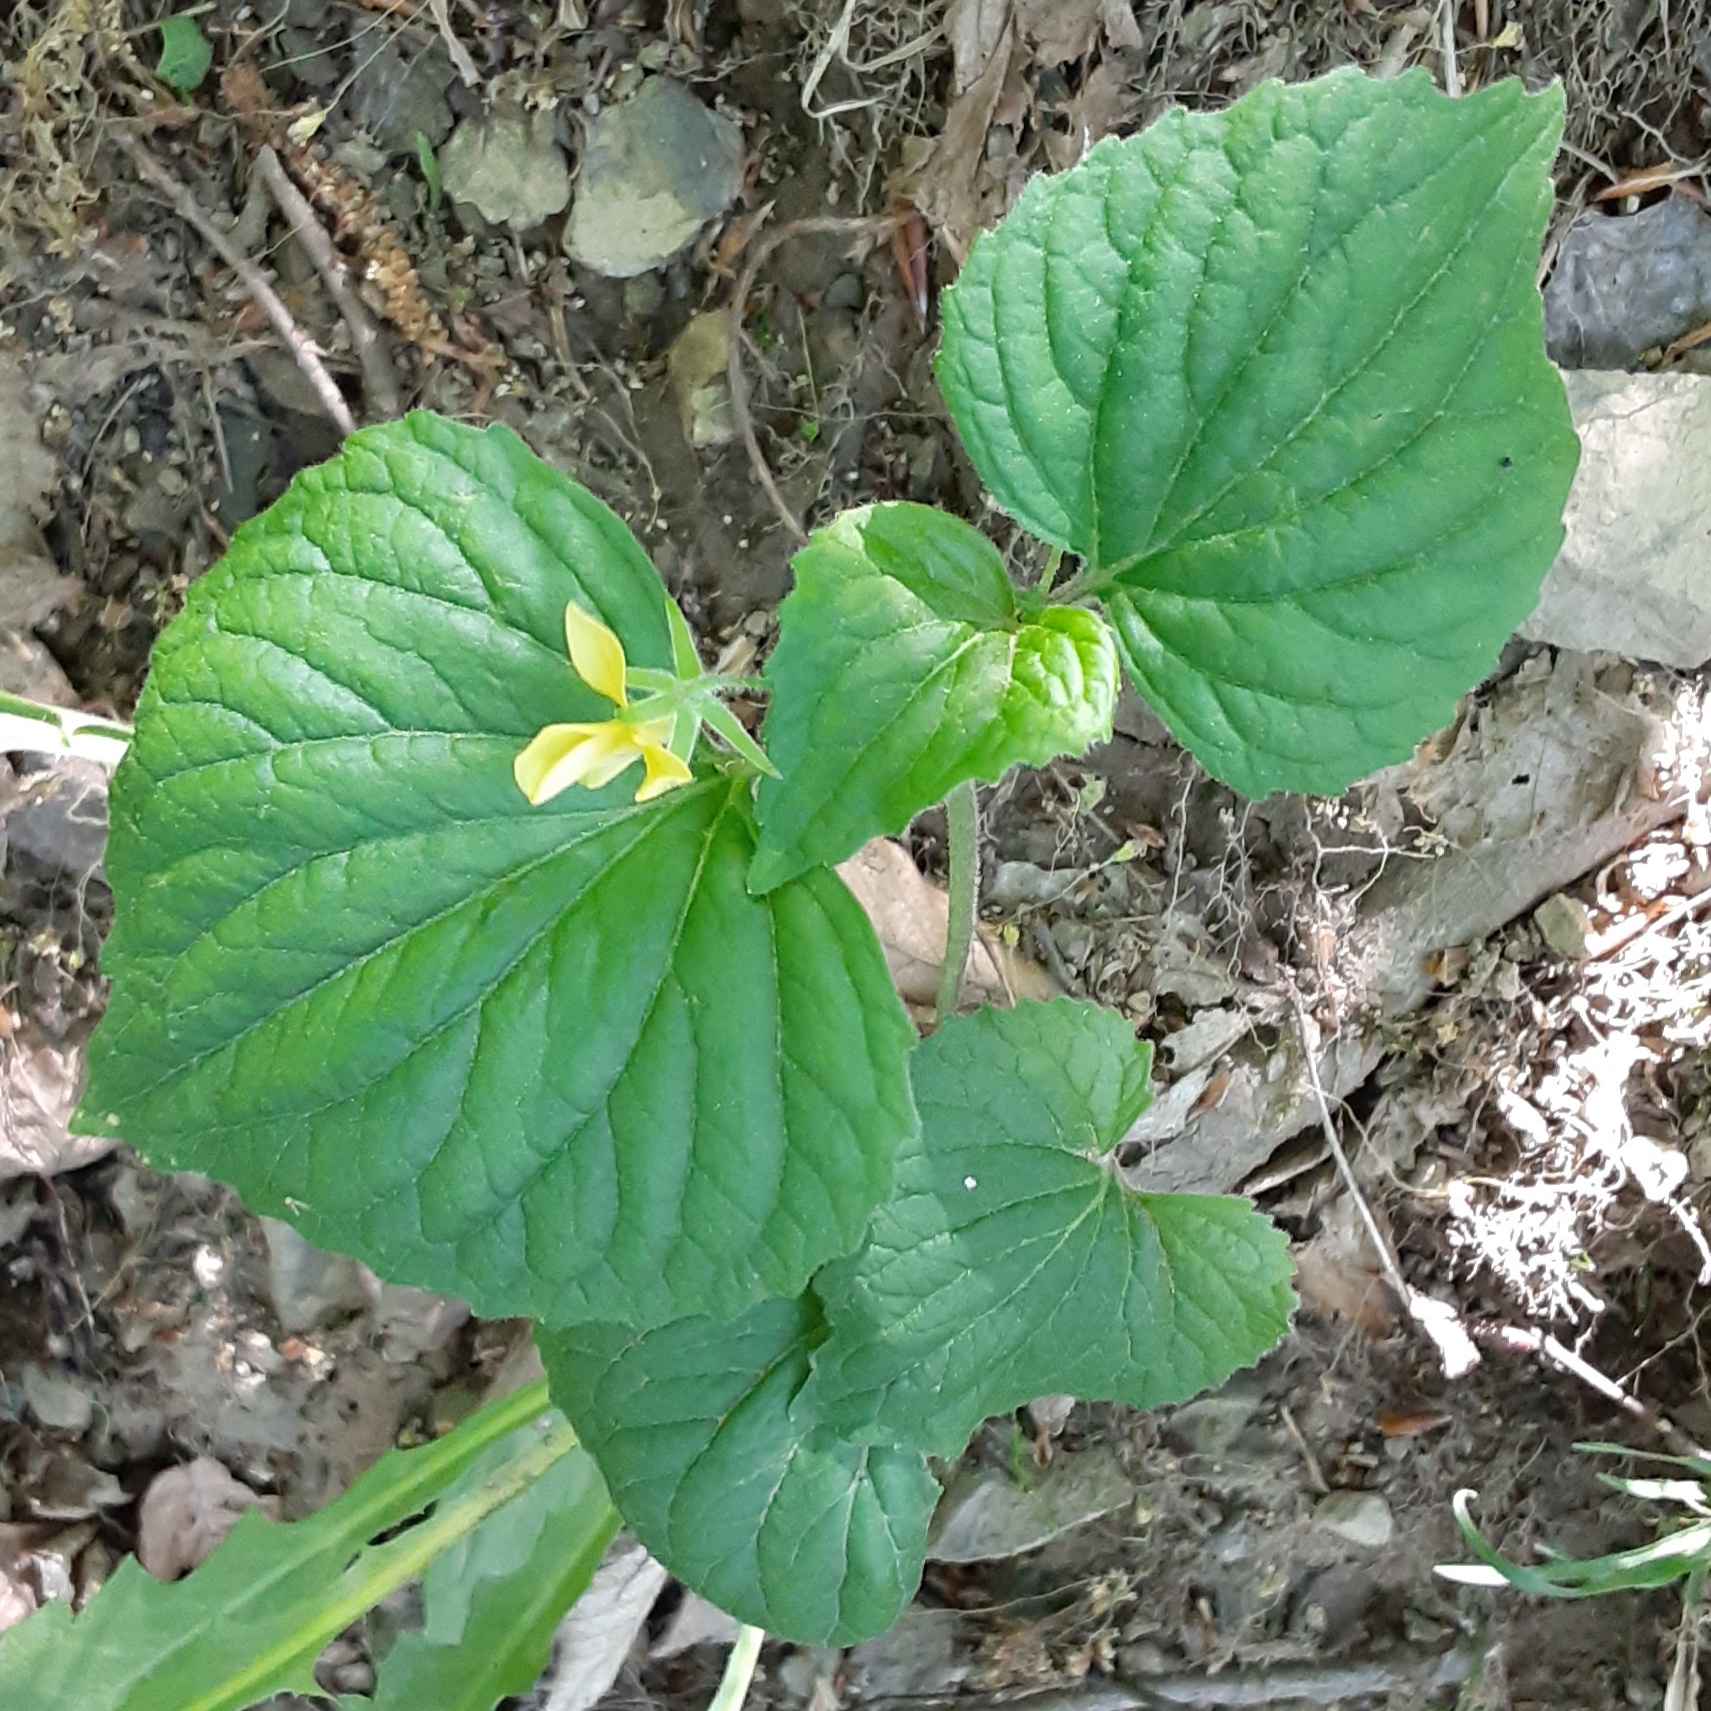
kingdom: Plantae
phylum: Tracheophyta
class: Magnoliopsida
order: Malpighiales
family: Violaceae
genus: Viola
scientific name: Viola eriocarpa
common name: Smooth yellow violet
